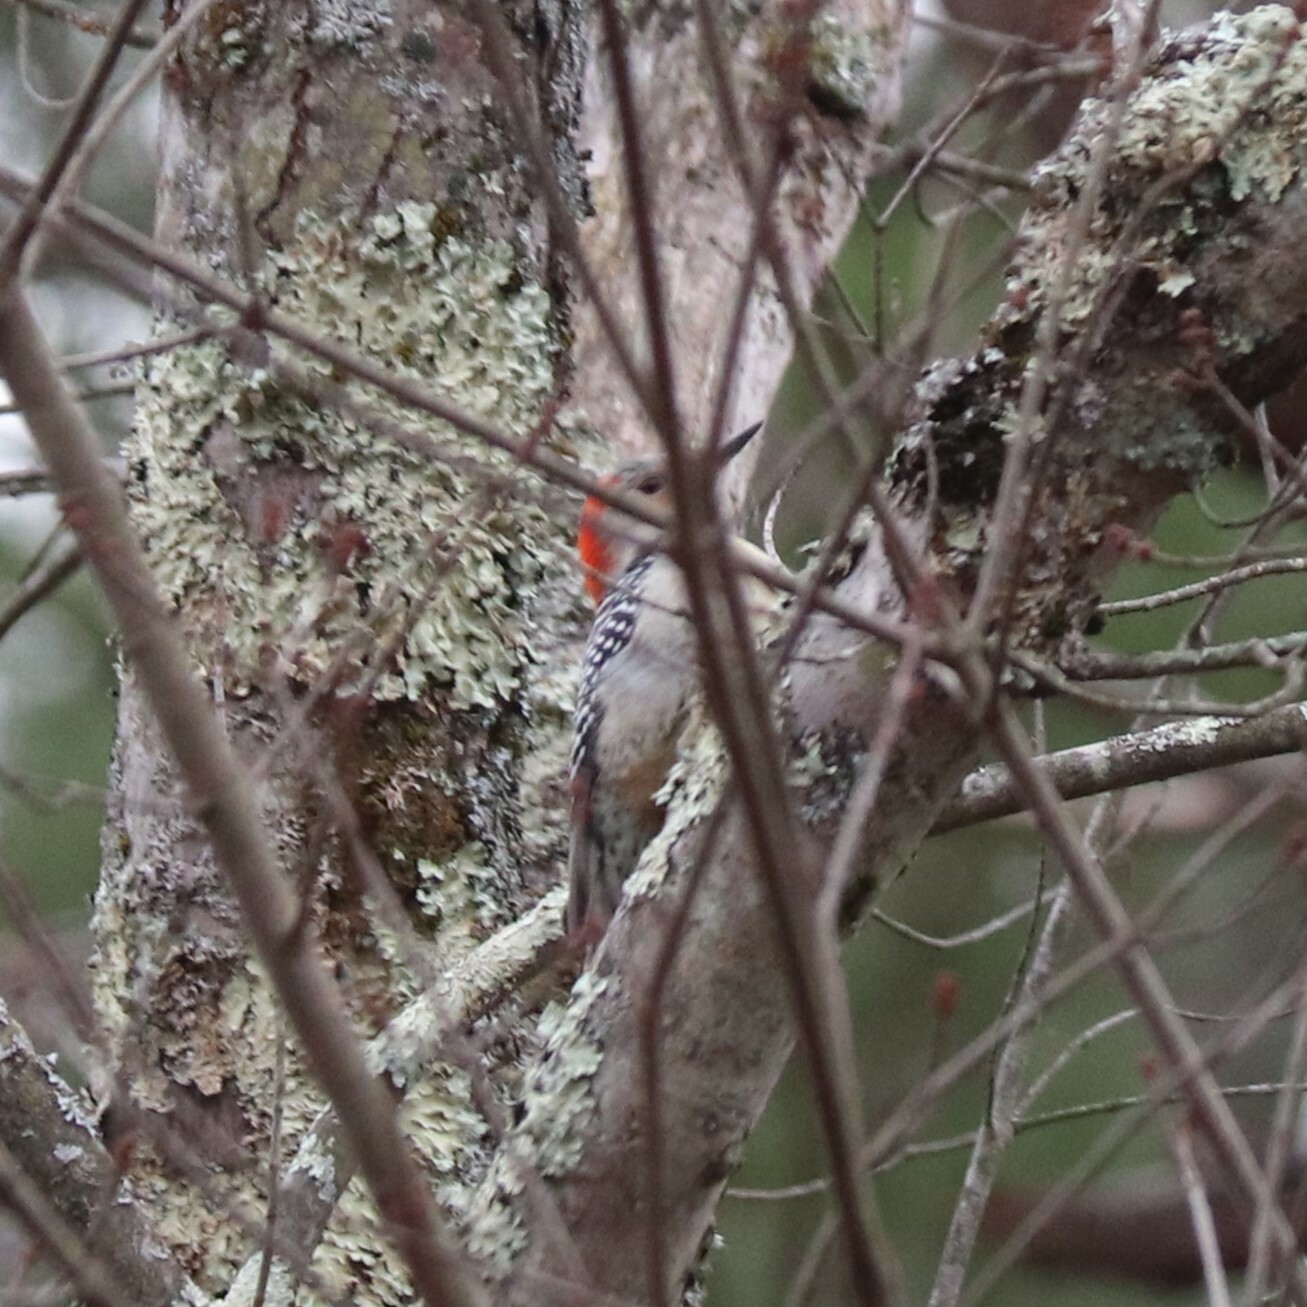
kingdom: Animalia
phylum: Chordata
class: Aves
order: Piciformes
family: Picidae
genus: Melanerpes
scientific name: Melanerpes carolinus
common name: Red-bellied woodpecker
